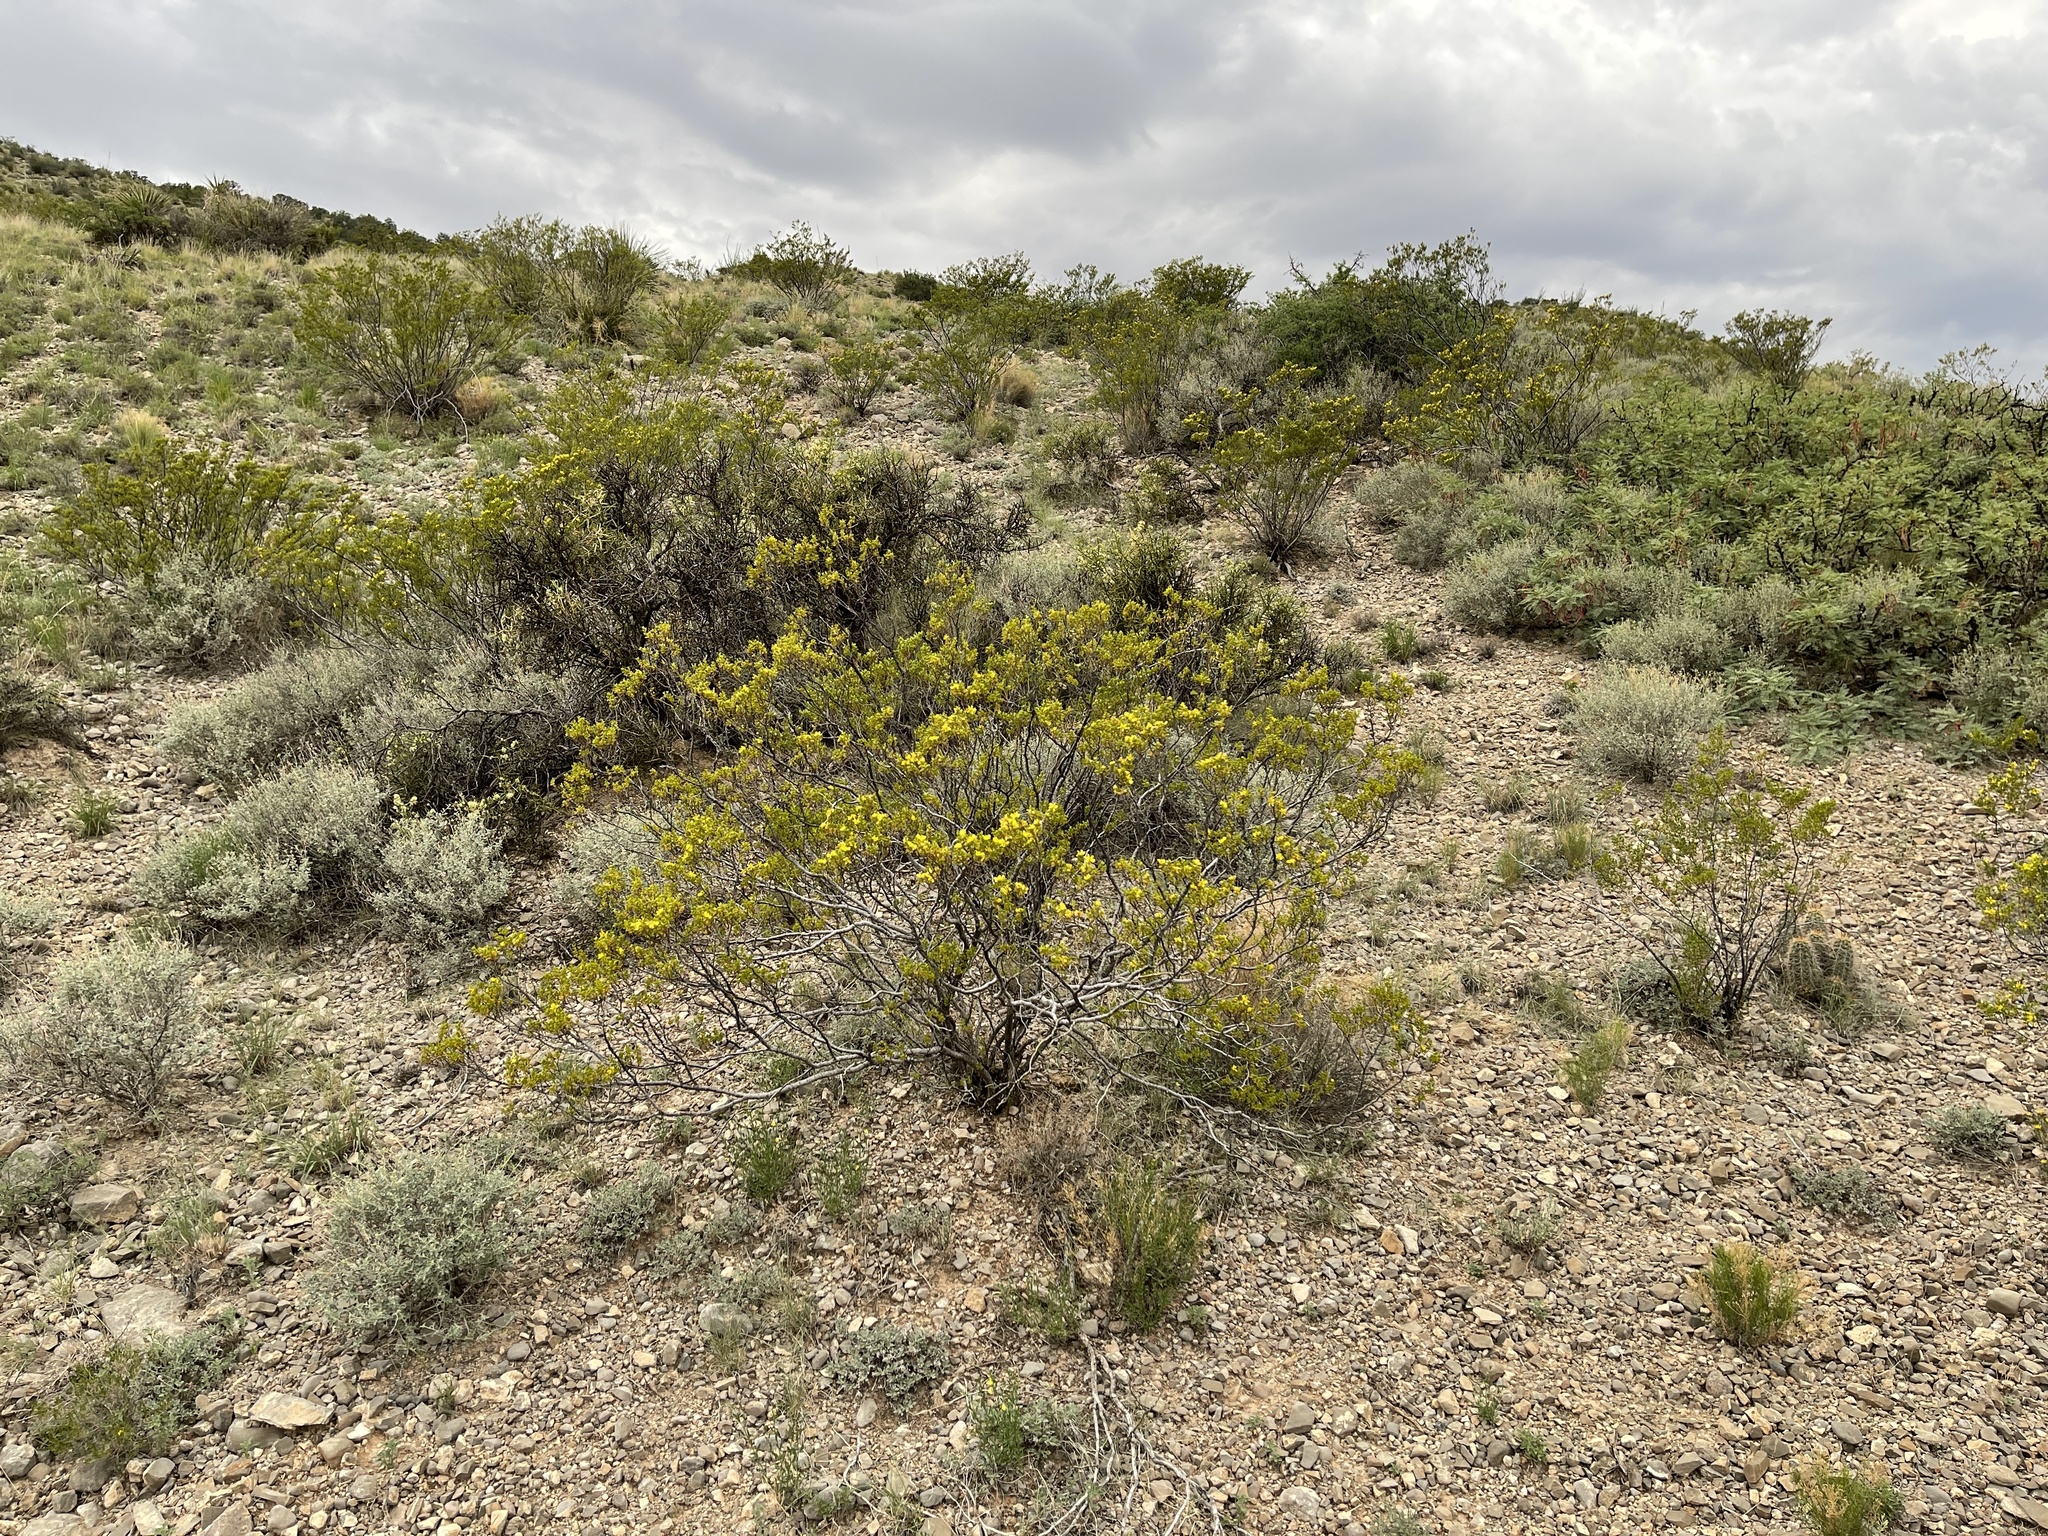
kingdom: Plantae
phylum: Tracheophyta
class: Magnoliopsida
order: Zygophyllales
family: Zygophyllaceae
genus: Larrea
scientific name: Larrea tridentata
